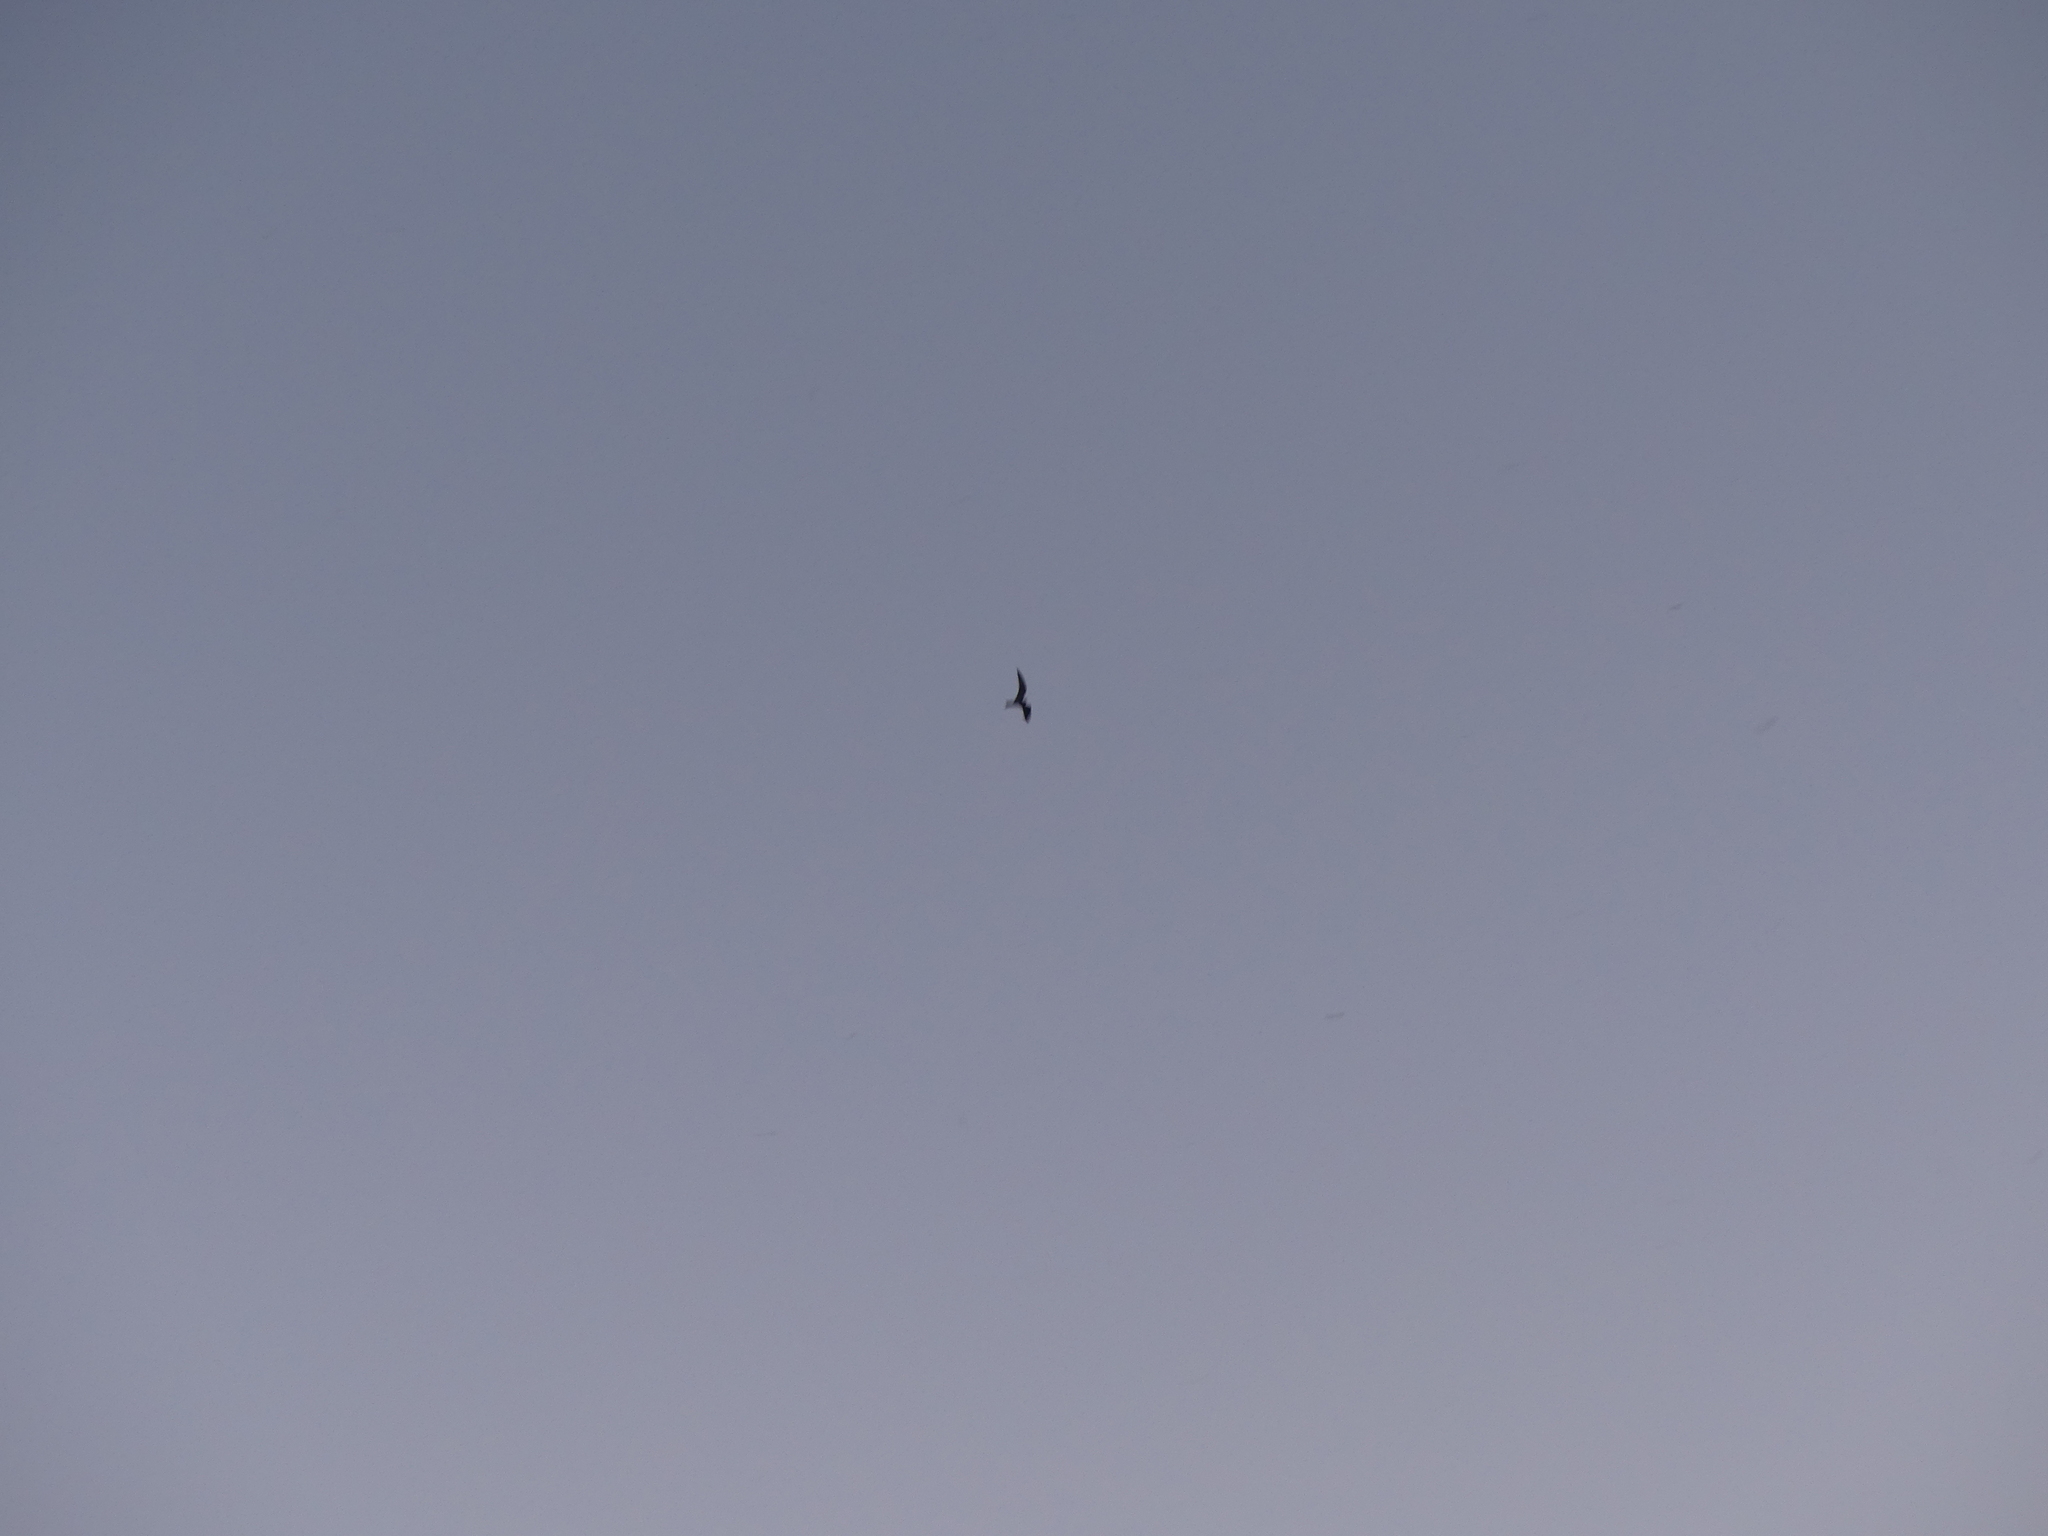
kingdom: Animalia
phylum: Chordata
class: Aves
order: Caprimulgiformes
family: Caprimulgidae
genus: Chordeiles
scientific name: Chordeiles minor
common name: Common nighthawk
